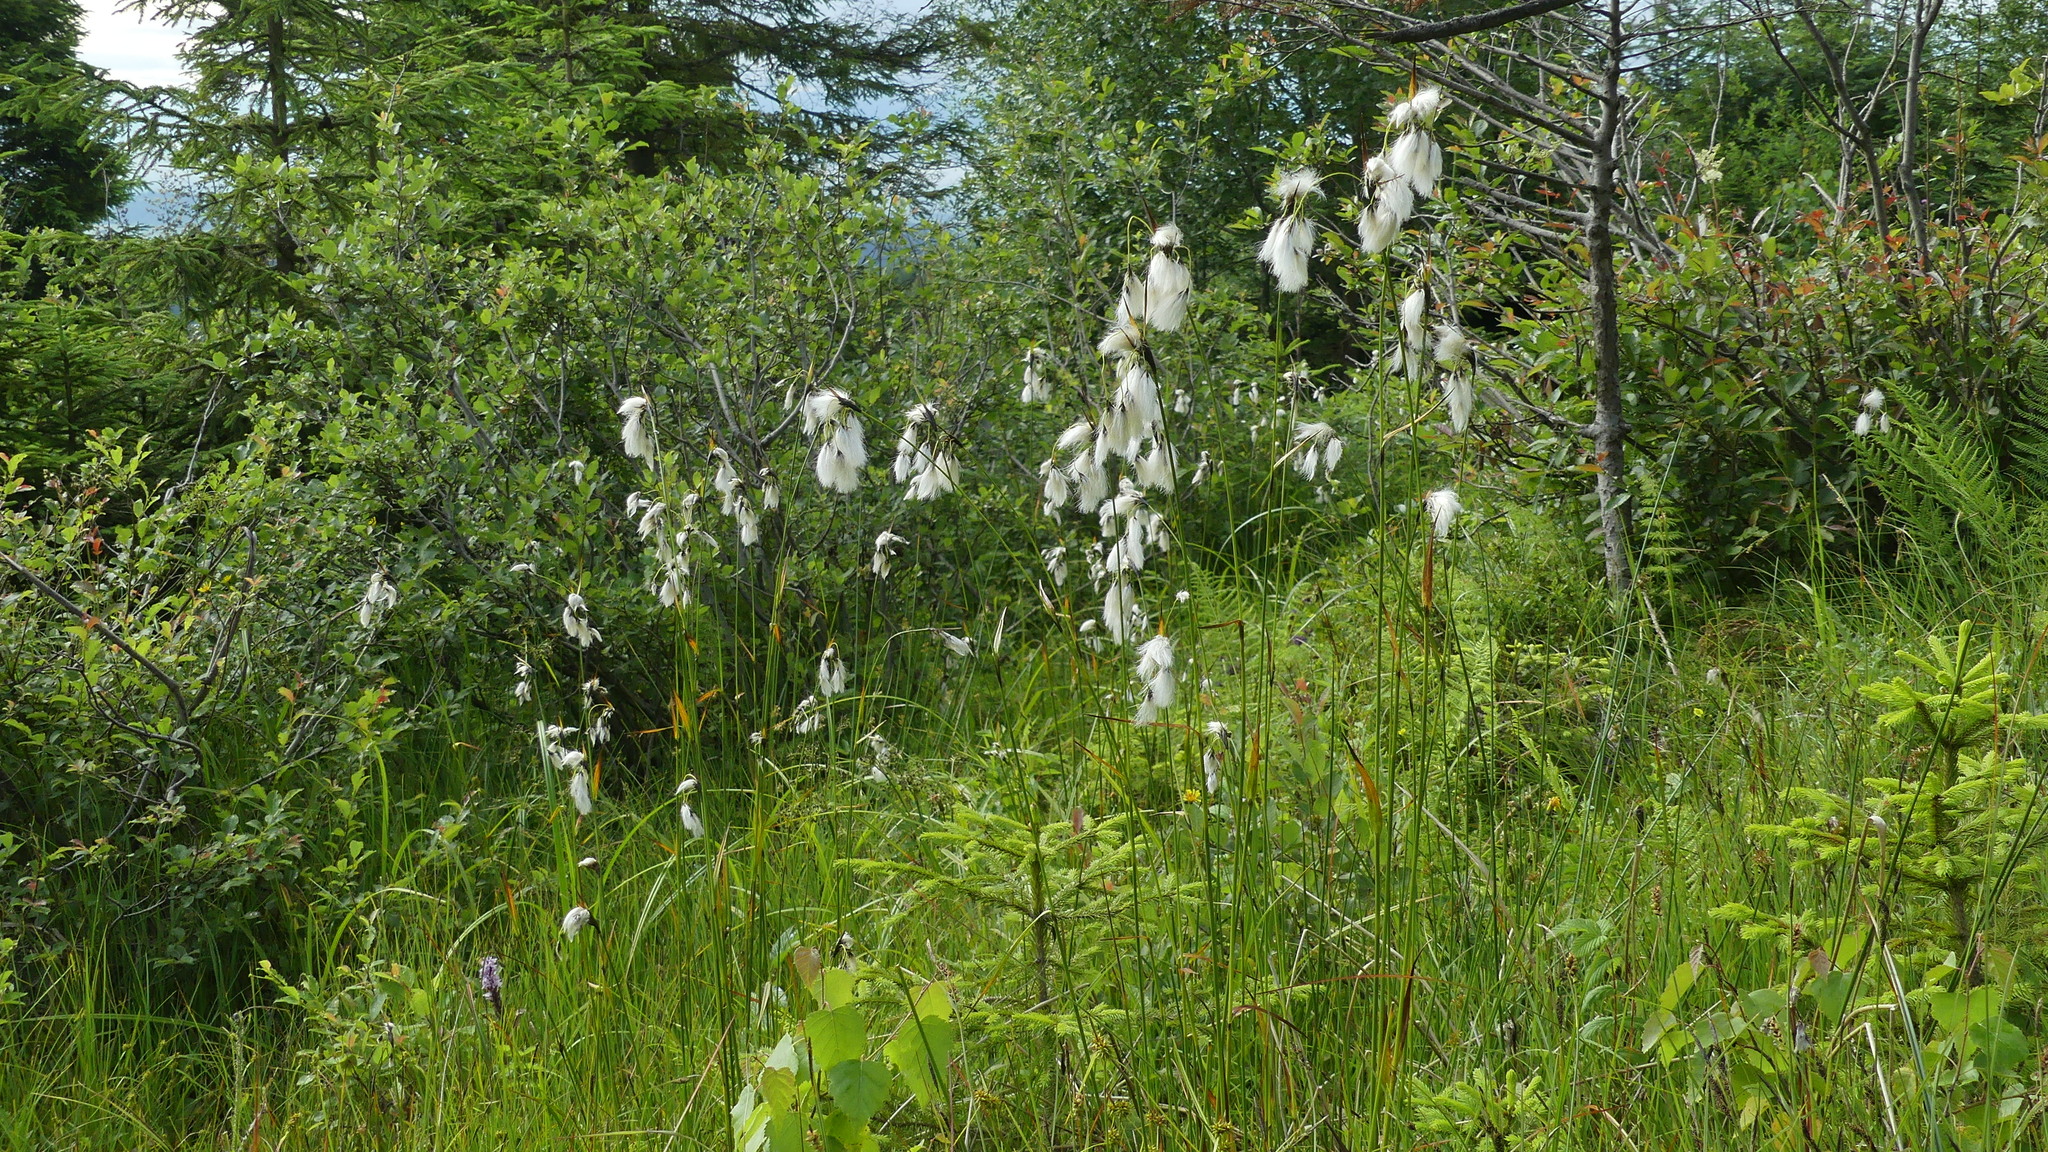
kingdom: Plantae
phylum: Tracheophyta
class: Liliopsida
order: Poales
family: Cyperaceae
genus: Eriophorum
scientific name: Eriophorum latifolium
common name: Broad-leaved cottongrass
